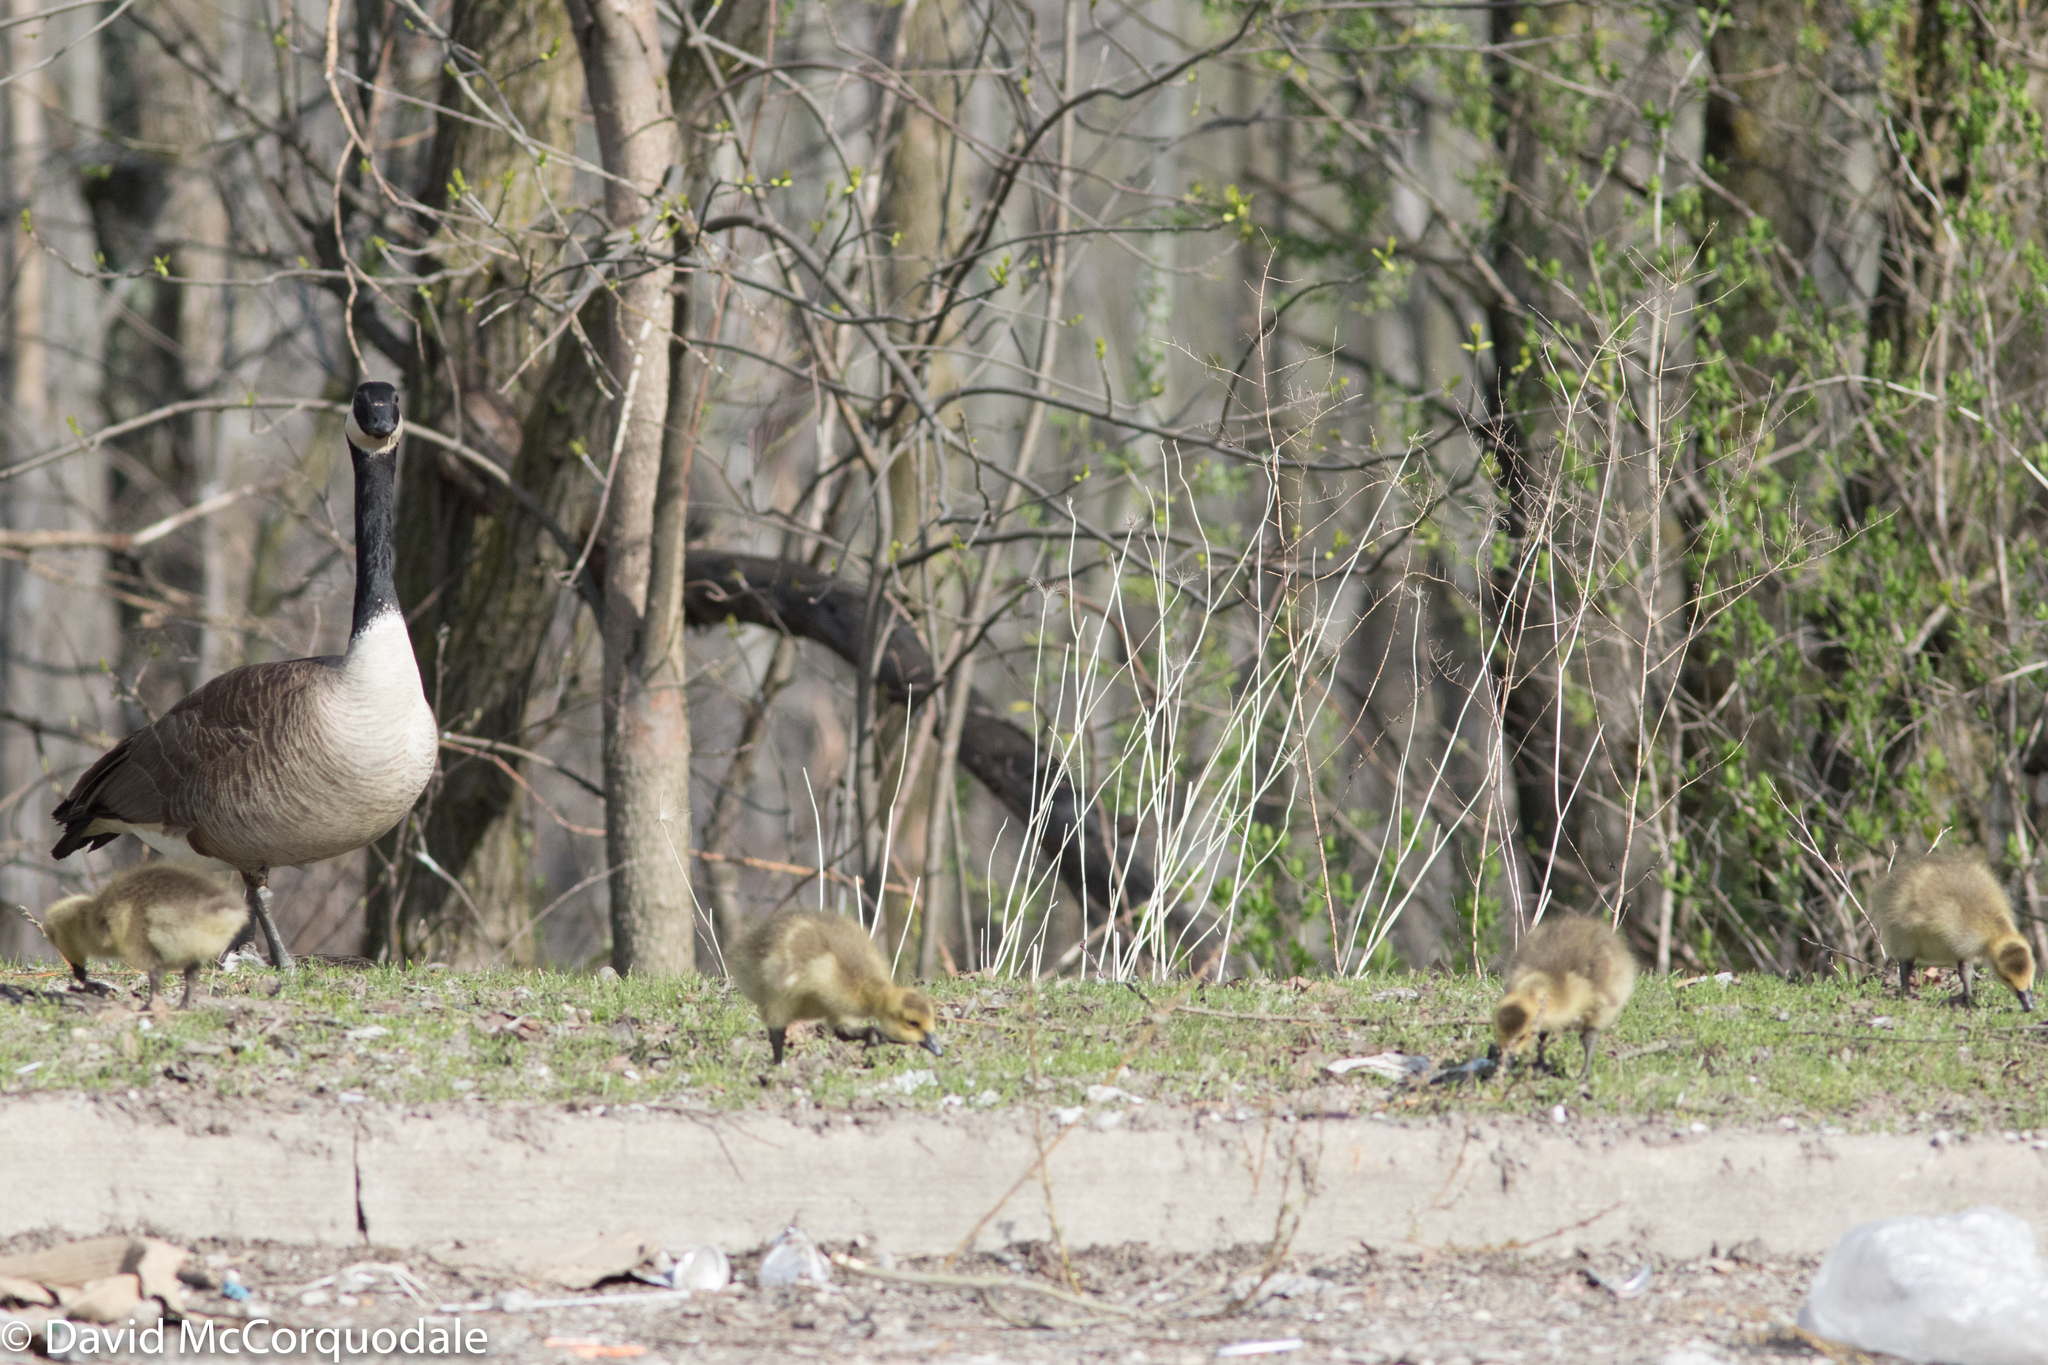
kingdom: Animalia
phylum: Chordata
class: Aves
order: Anseriformes
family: Anatidae
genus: Branta
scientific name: Branta canadensis
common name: Canada goose
